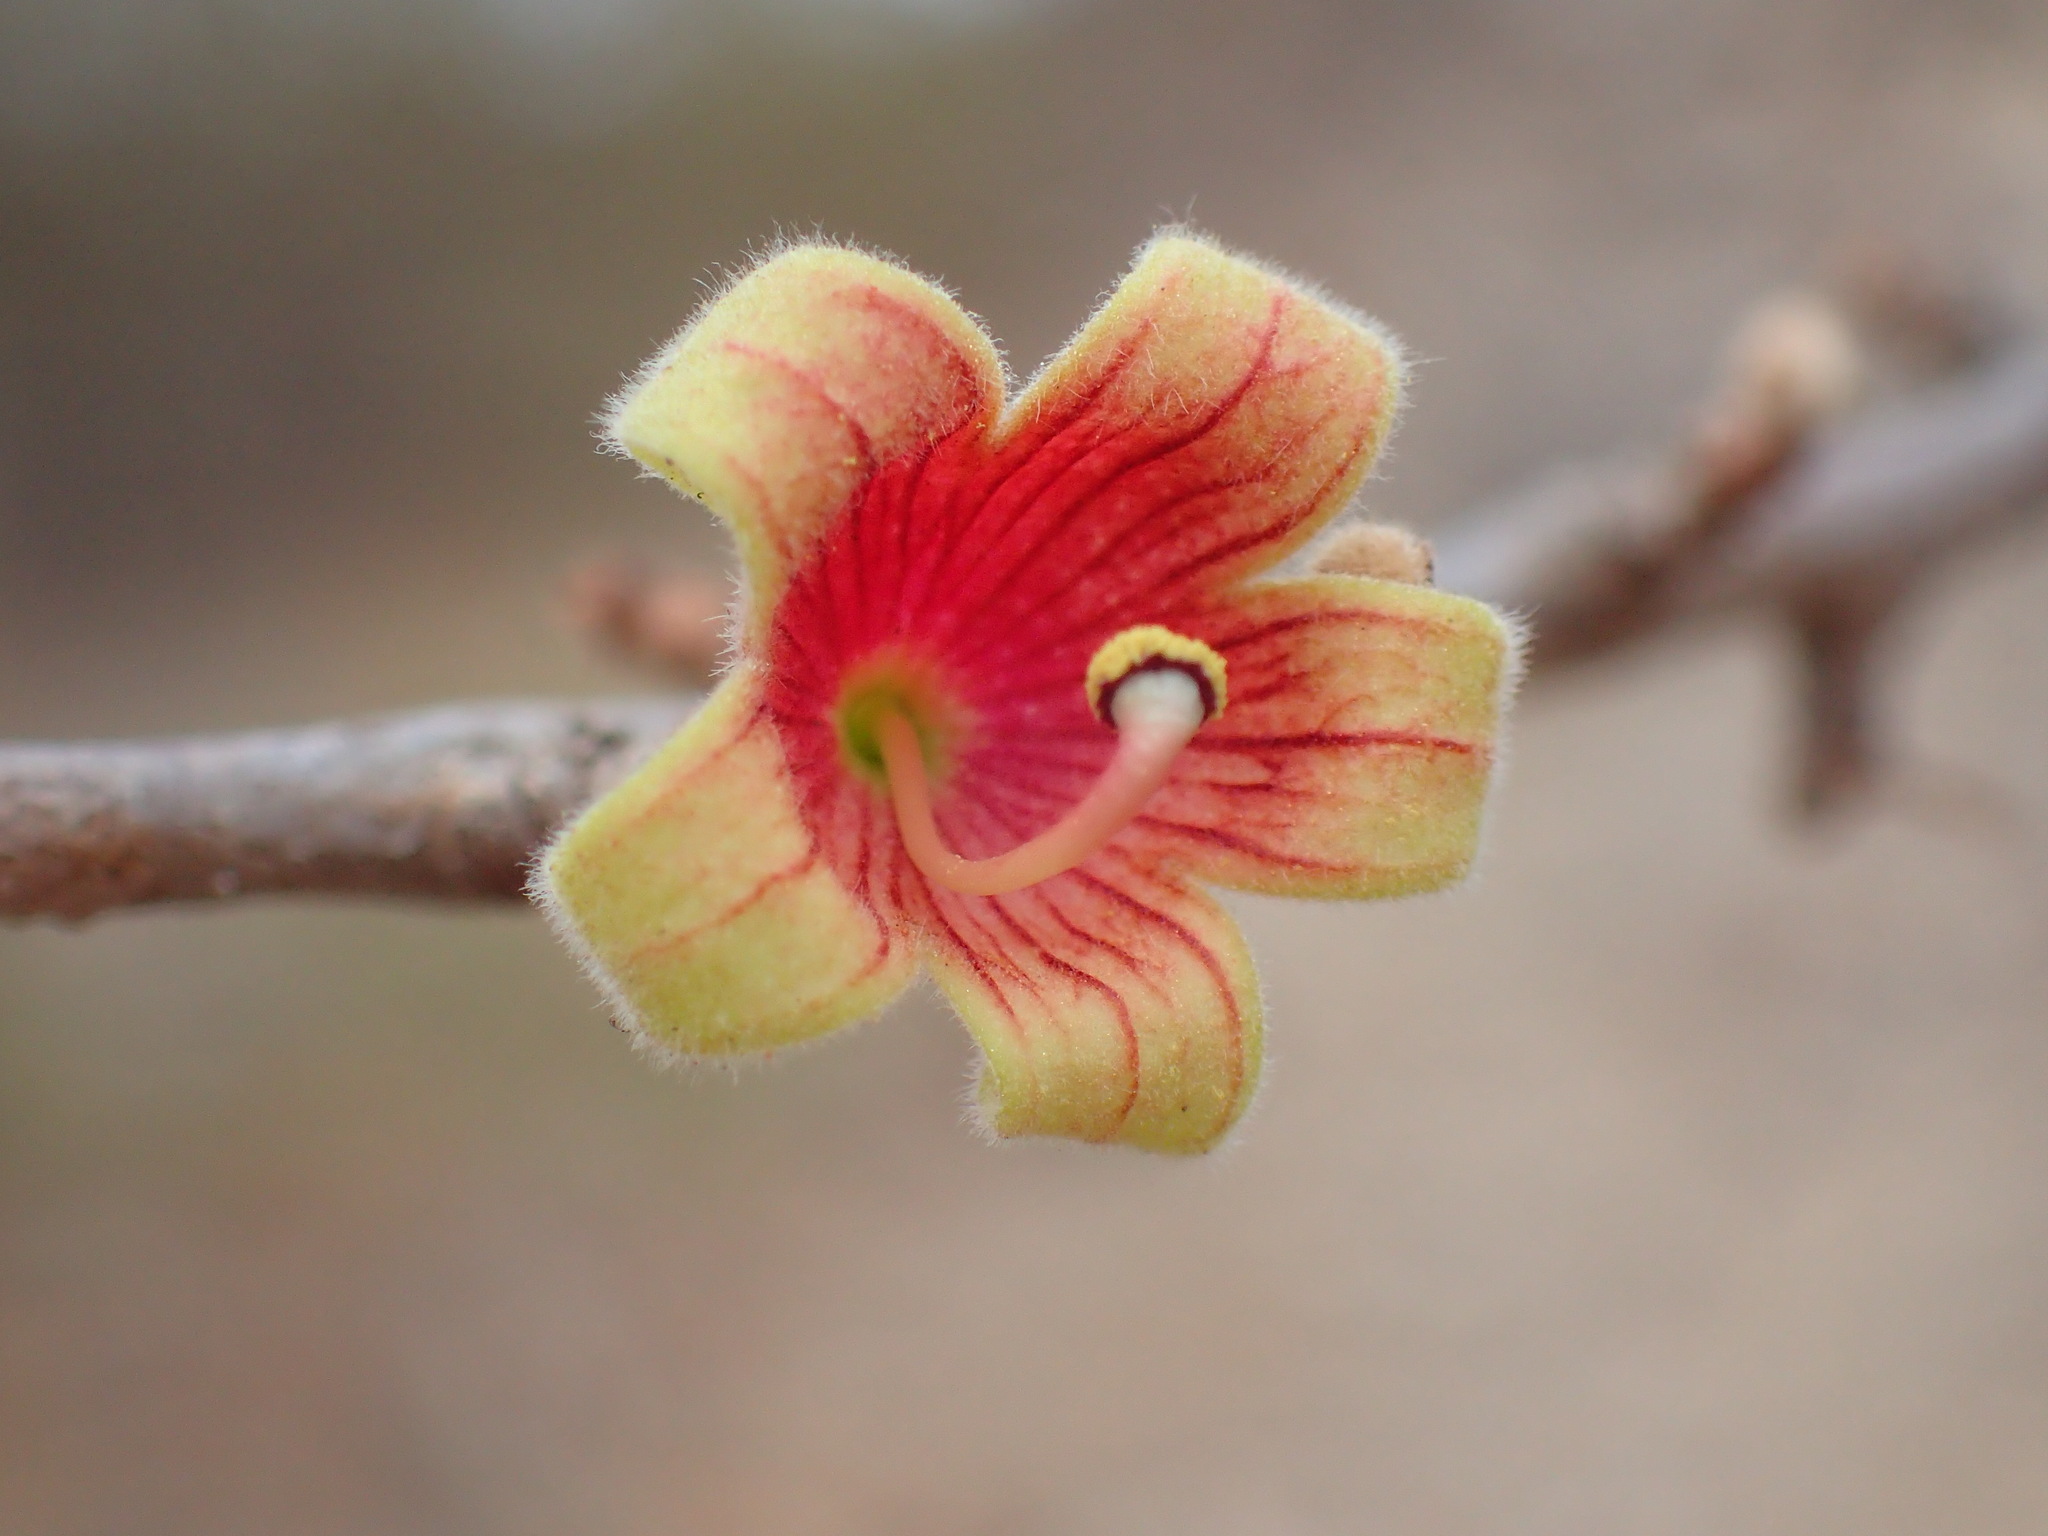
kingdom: Plantae
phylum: Tracheophyta
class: Magnoliopsida
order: Malvales
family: Malvaceae
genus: Sterculia
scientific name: Sterculia rogersii
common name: Star-chestnut
